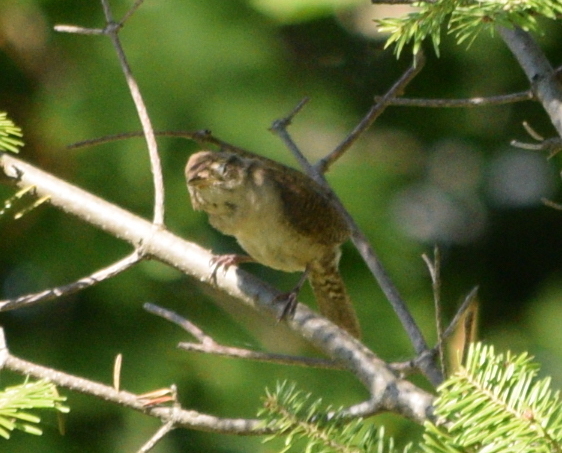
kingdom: Animalia
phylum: Chordata
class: Aves
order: Passeriformes
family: Troglodytidae
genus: Troglodytes
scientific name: Troglodytes aedon
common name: House wren
